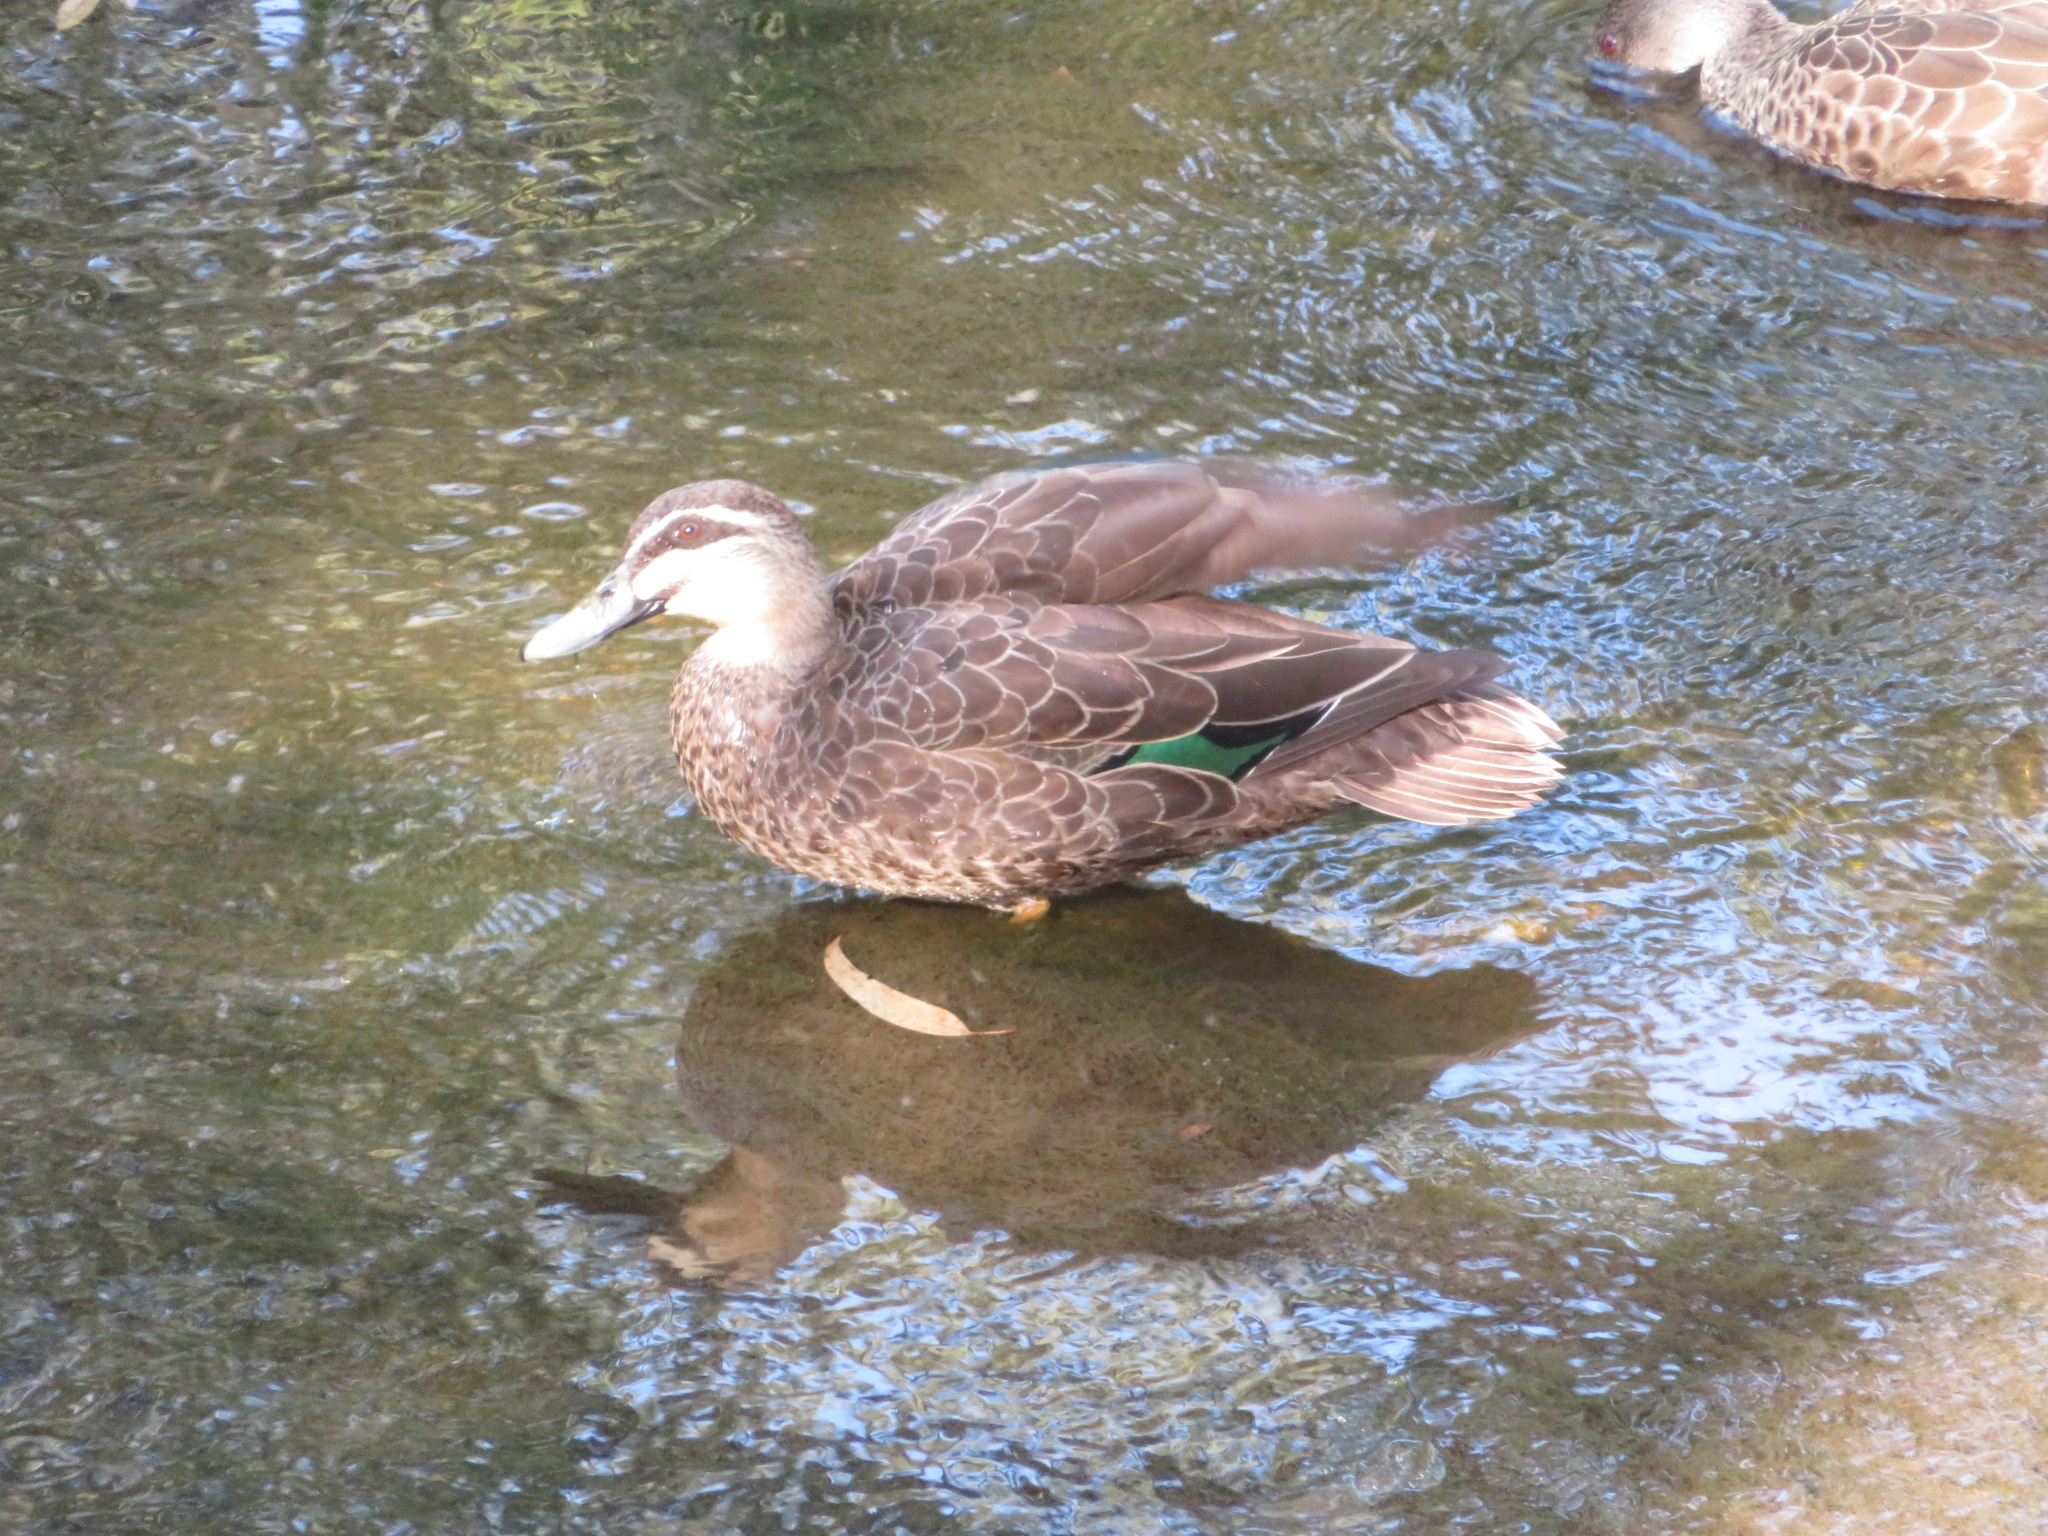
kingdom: Animalia
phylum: Chordata
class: Aves
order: Anseriformes
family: Anatidae
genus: Anas
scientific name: Anas
